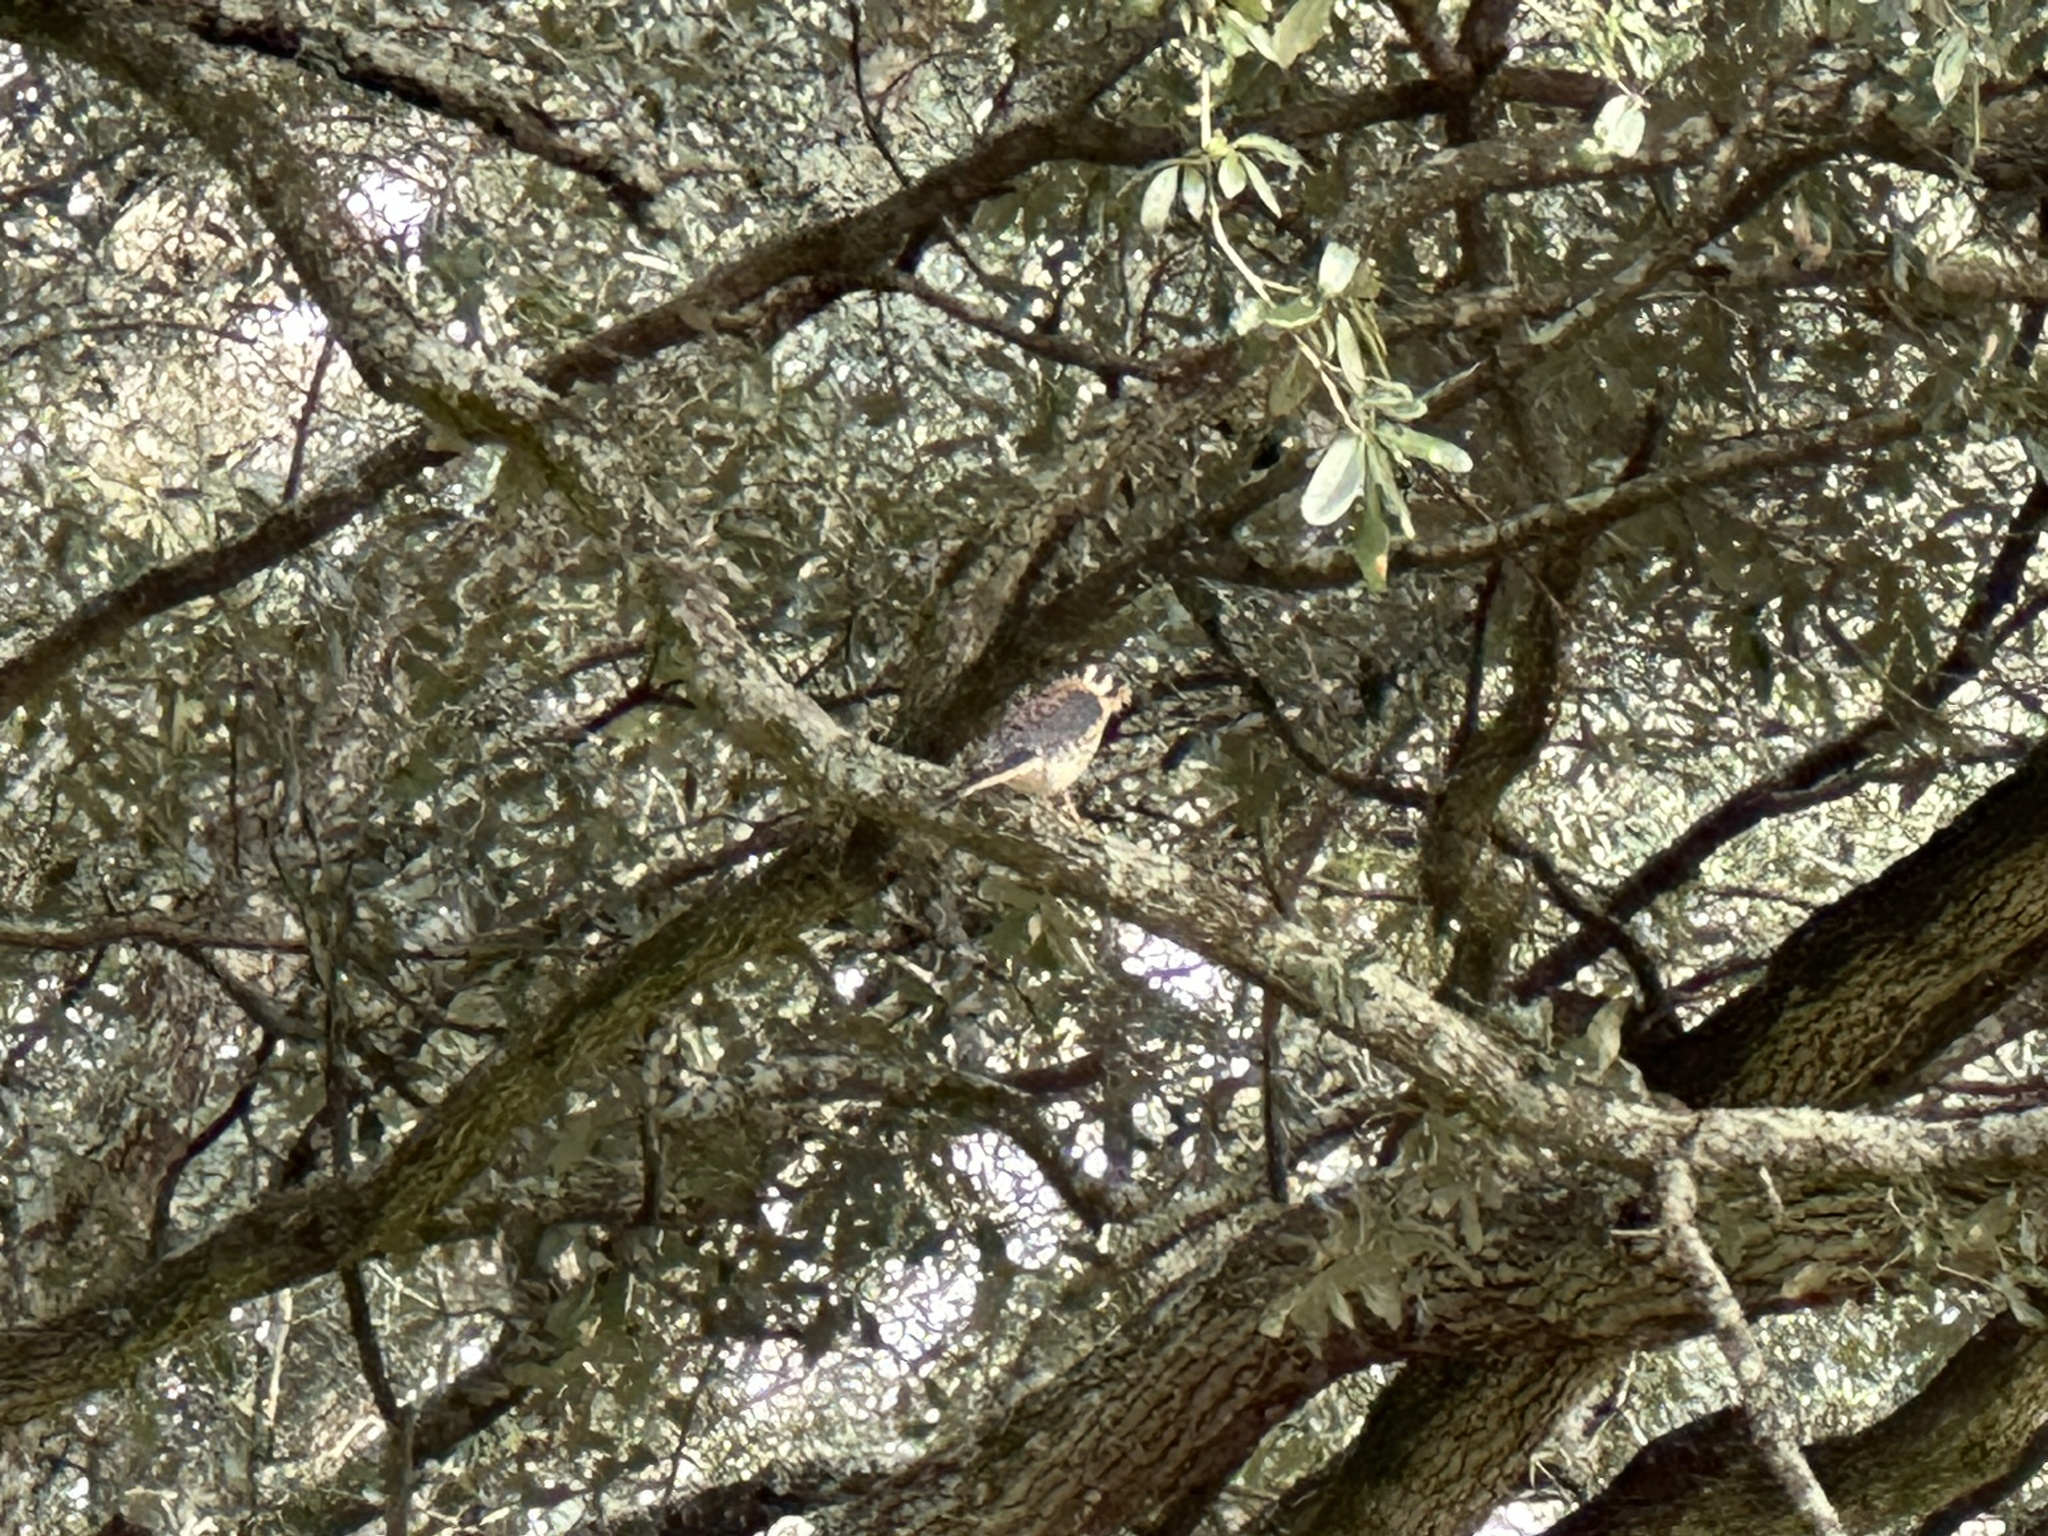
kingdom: Animalia
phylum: Chordata
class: Aves
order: Falconiformes
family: Falconidae
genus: Falco
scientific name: Falco sparverius
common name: American kestrel
